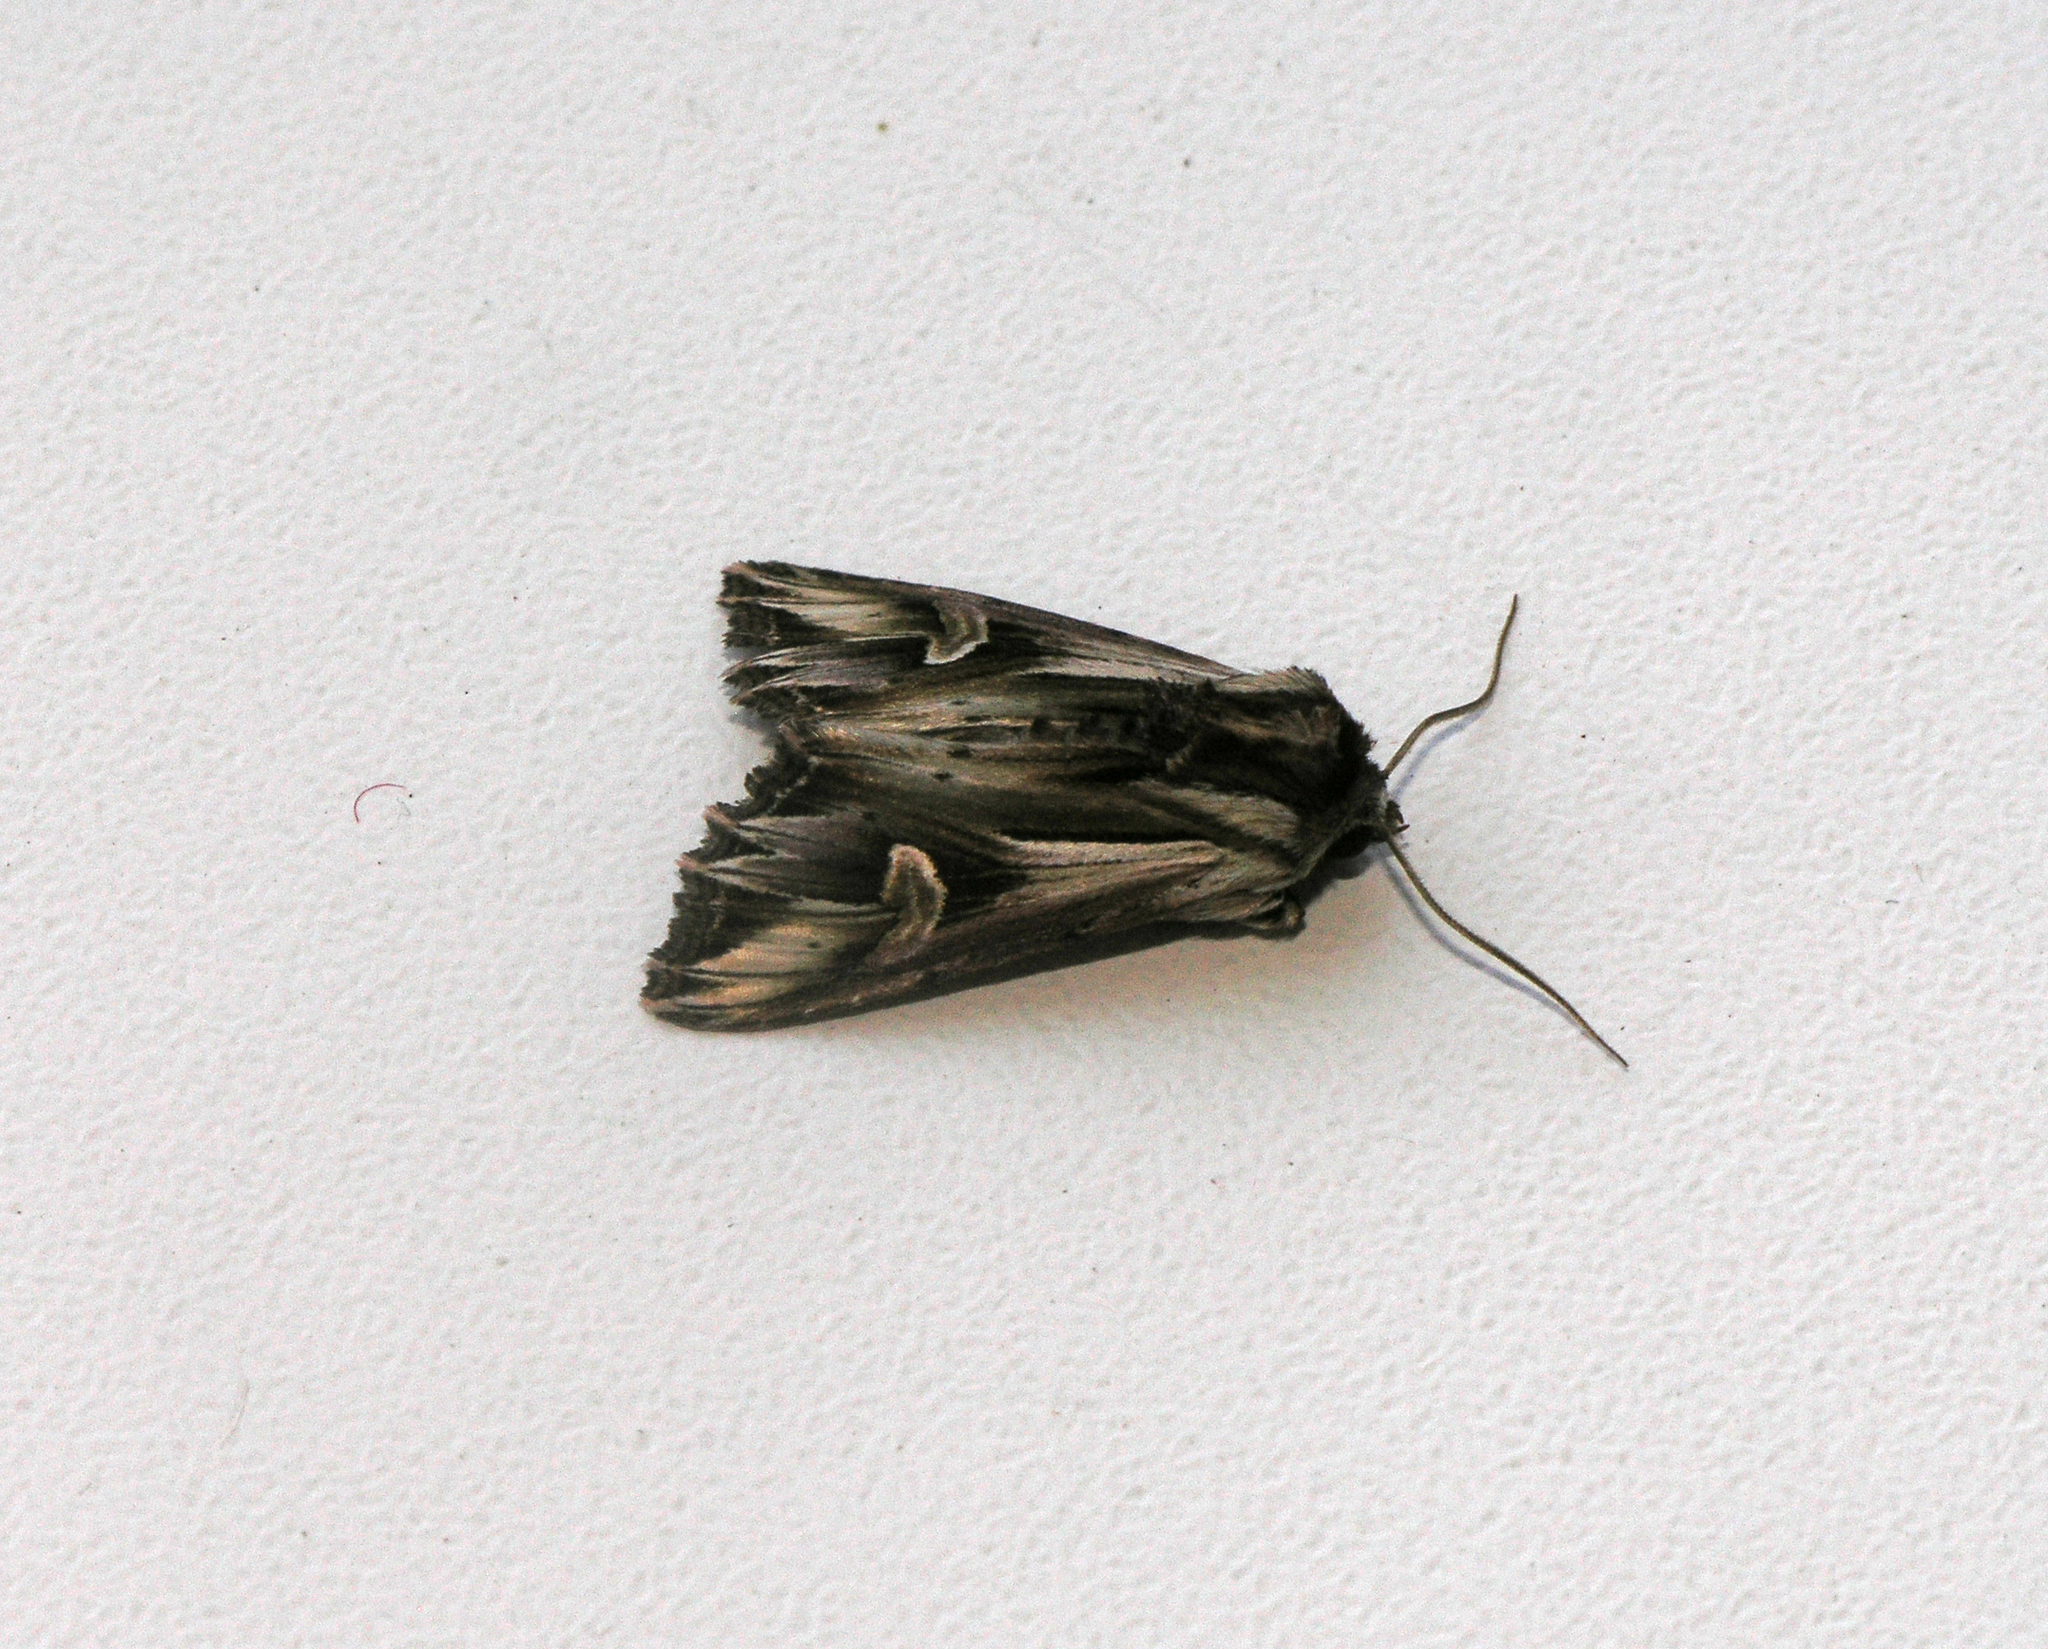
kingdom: Animalia
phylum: Arthropoda
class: Insecta
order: Lepidoptera
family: Noctuidae
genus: Actinotia
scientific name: Actinotia polyodon
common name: Purple cloud
